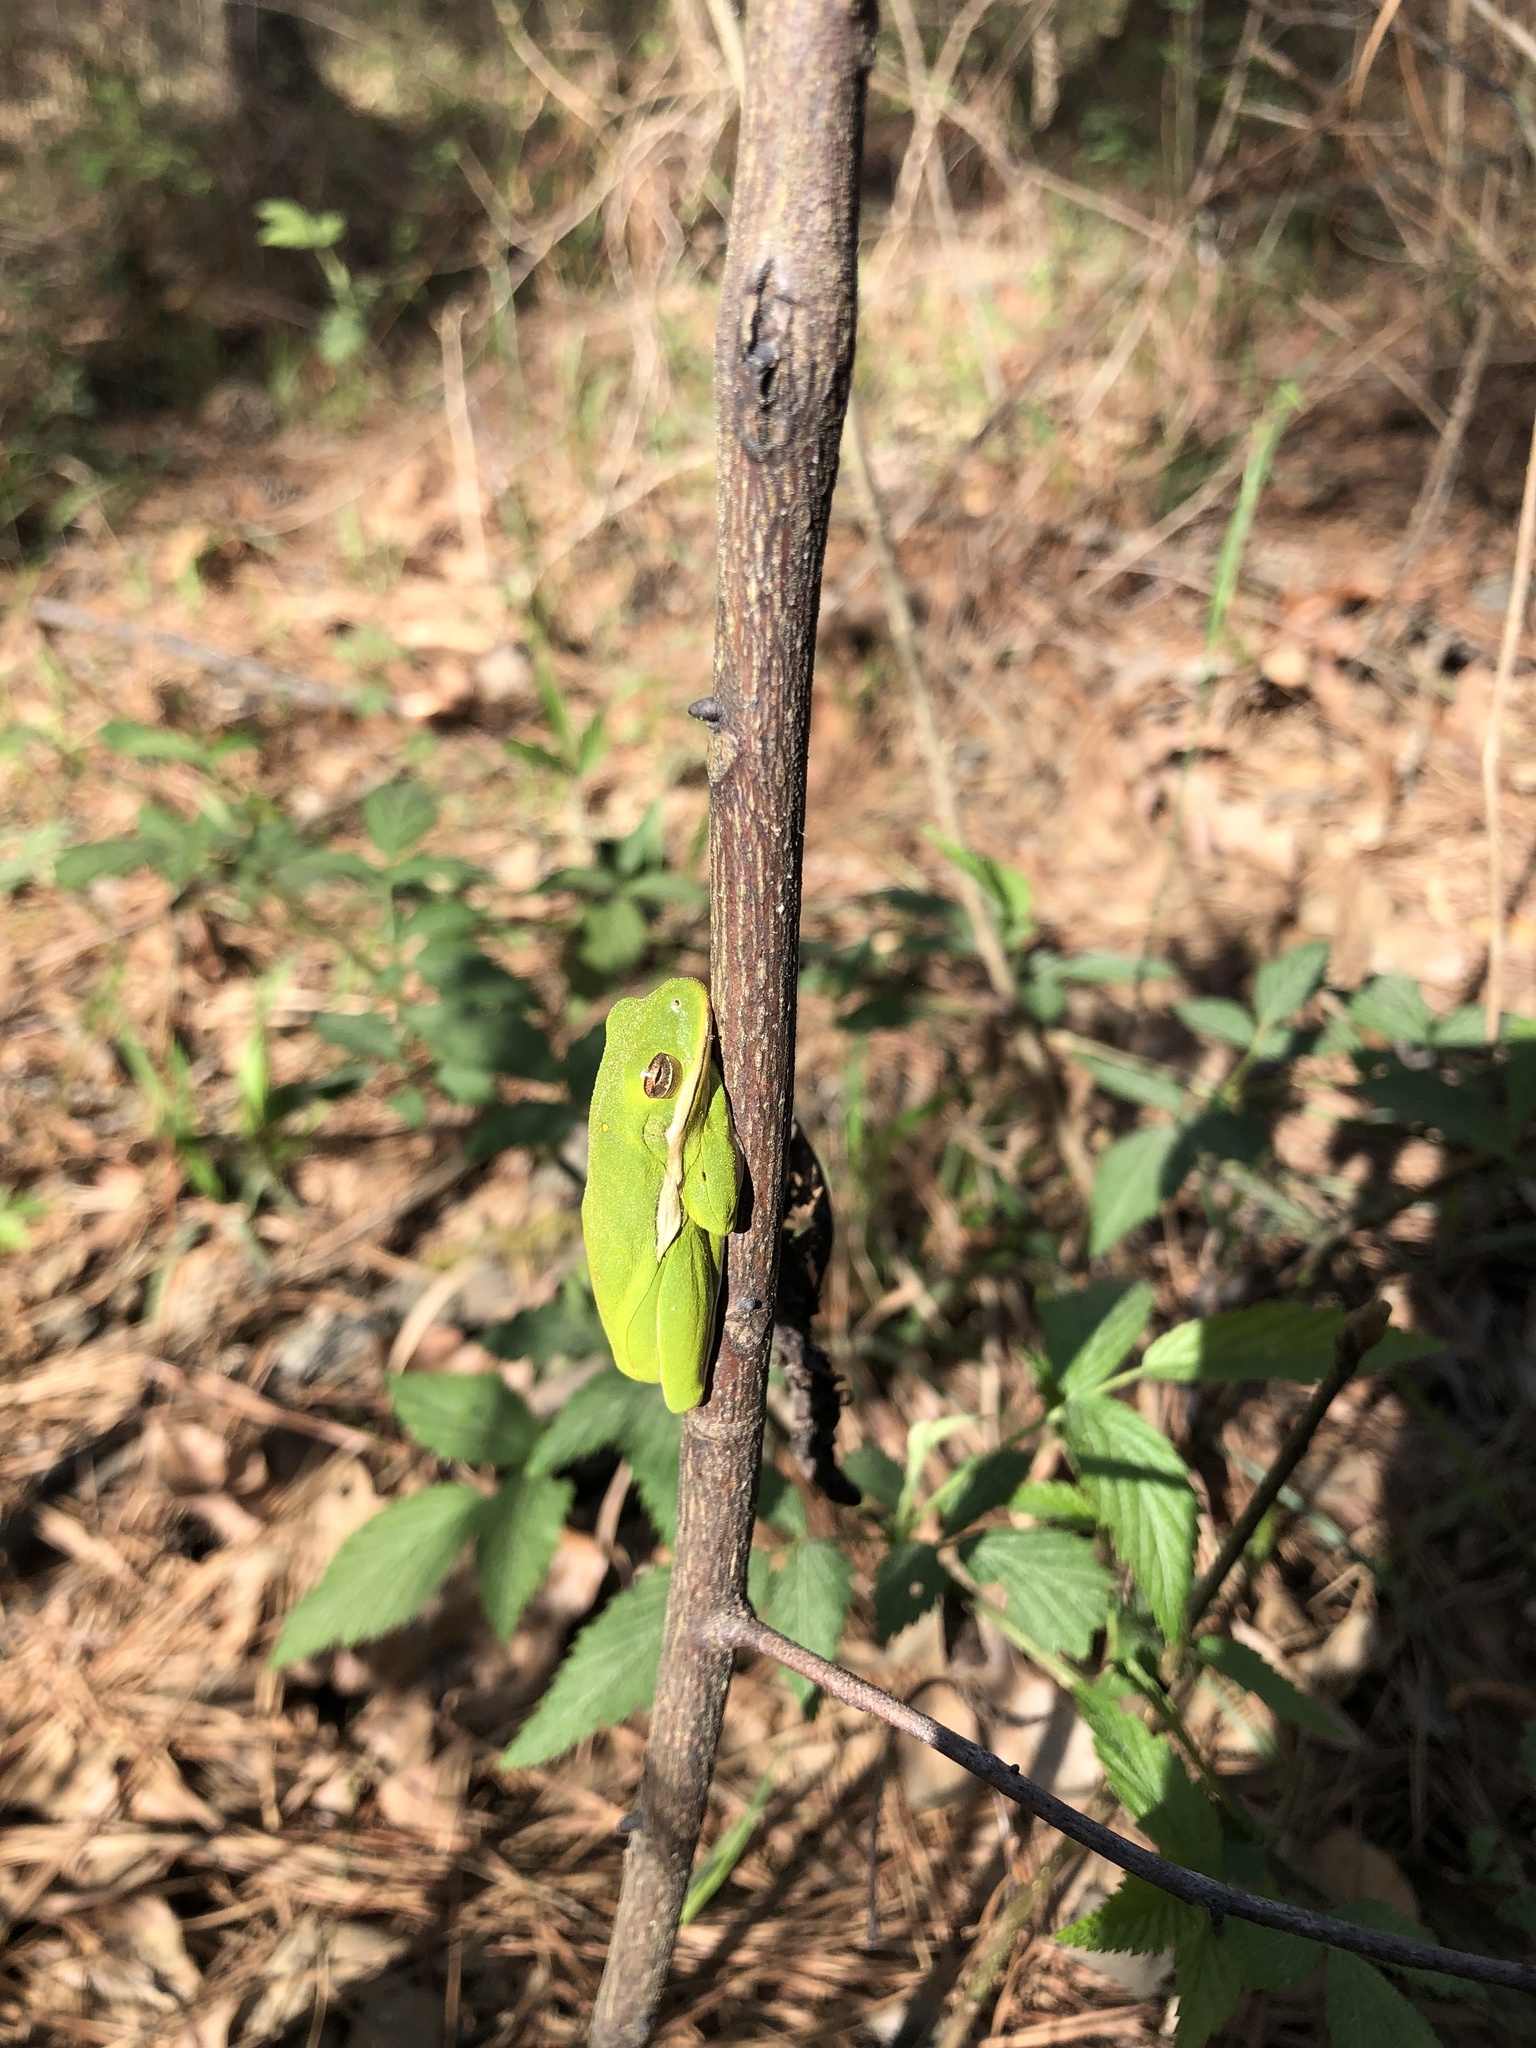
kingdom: Animalia
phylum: Chordata
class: Amphibia
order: Anura
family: Hylidae
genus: Dryophytes
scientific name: Dryophytes cinereus
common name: Green treefrog
